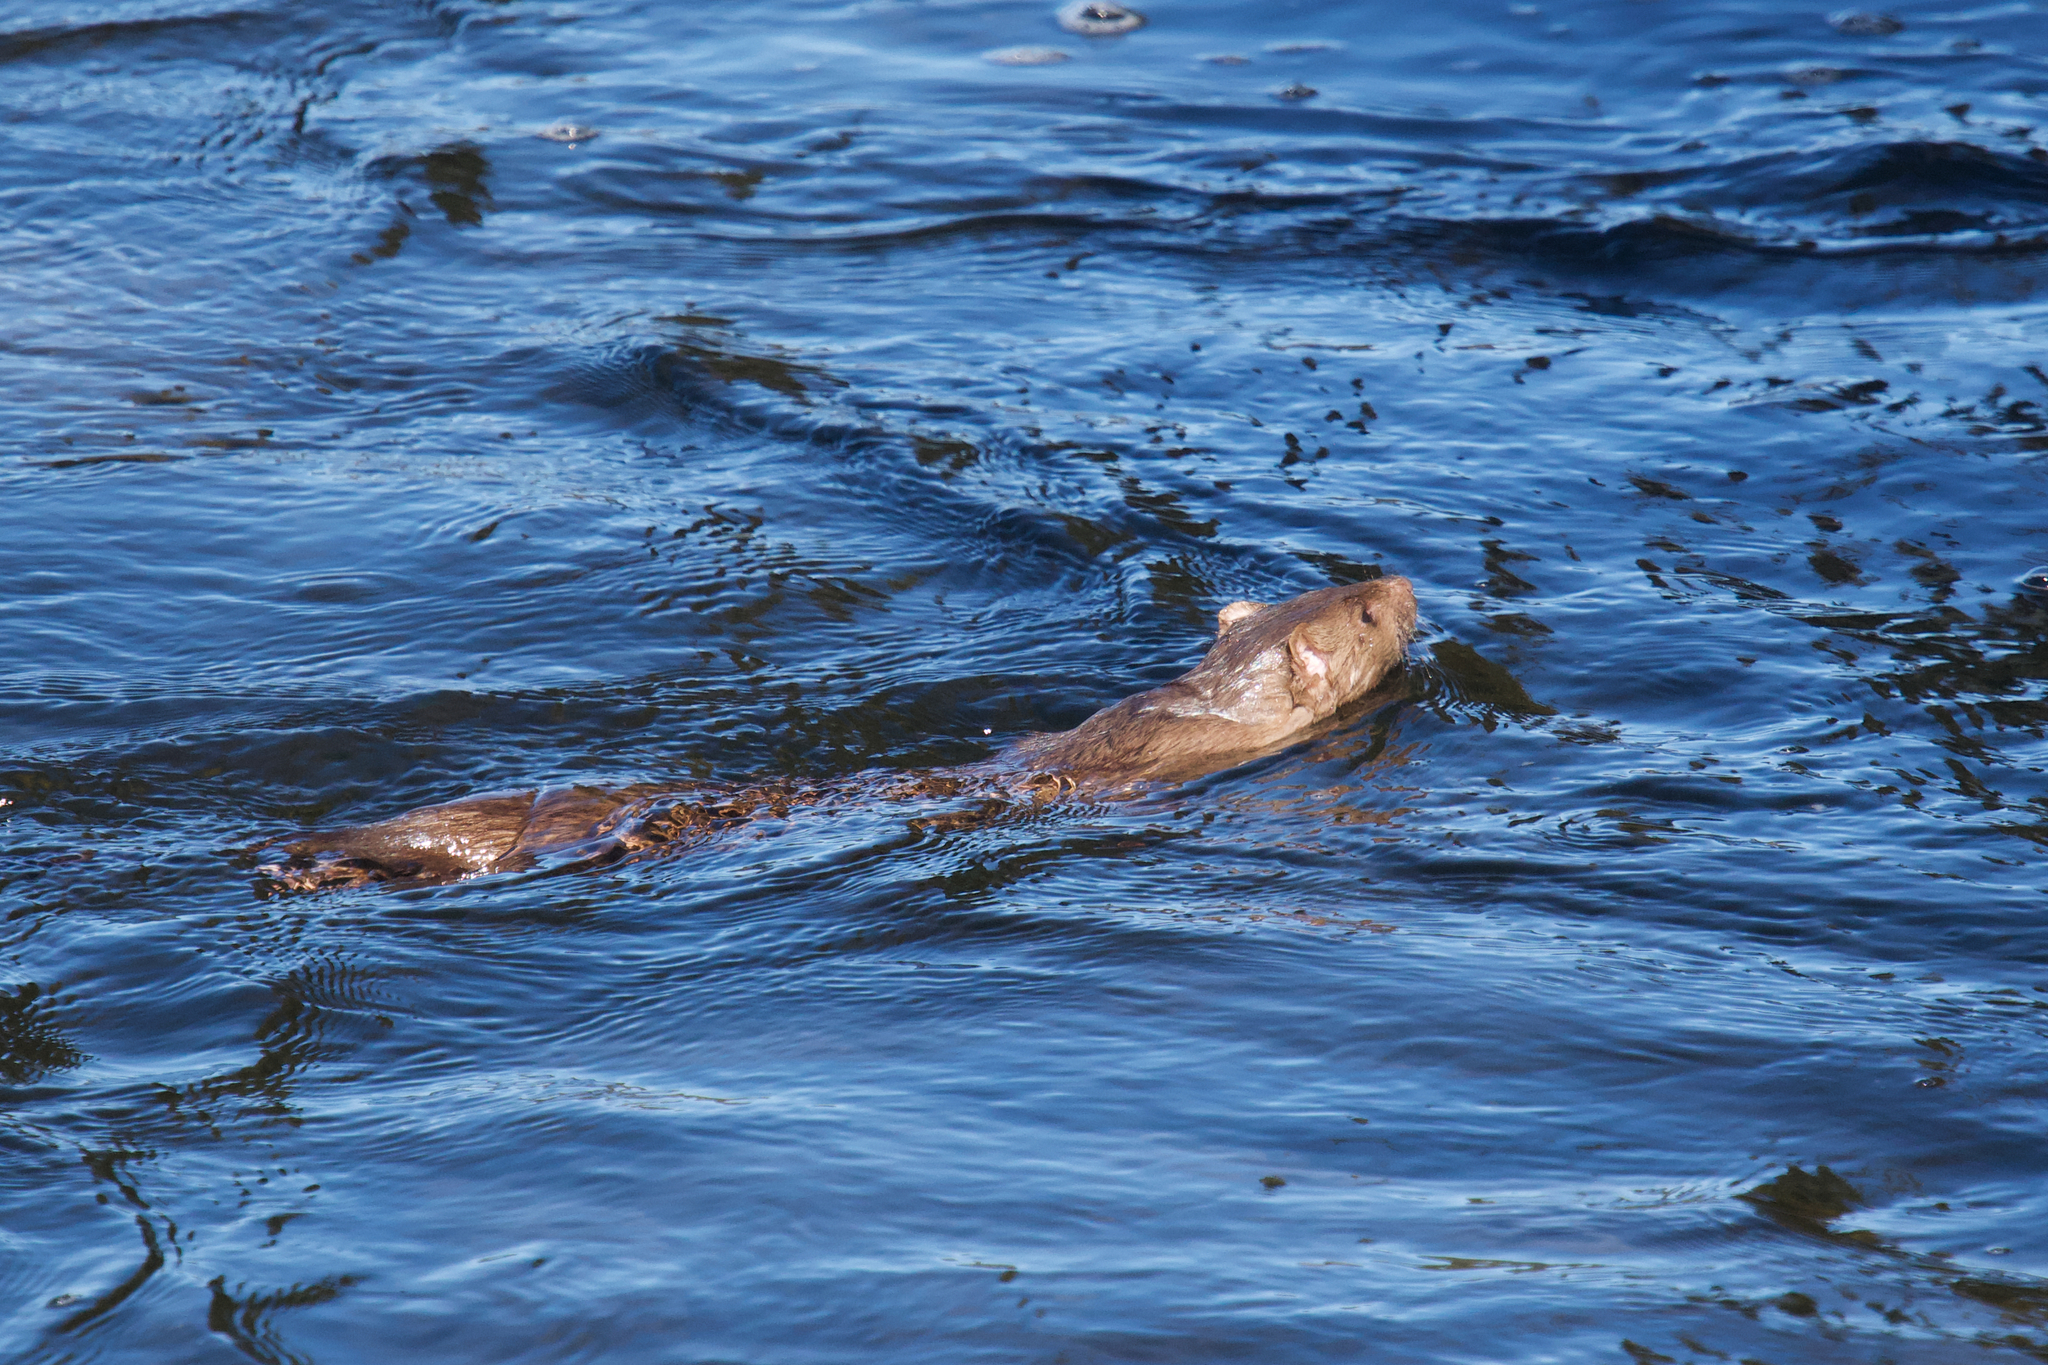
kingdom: Animalia
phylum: Chordata
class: Mammalia
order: Carnivora
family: Mustelidae
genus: Mustela
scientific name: Mustela
